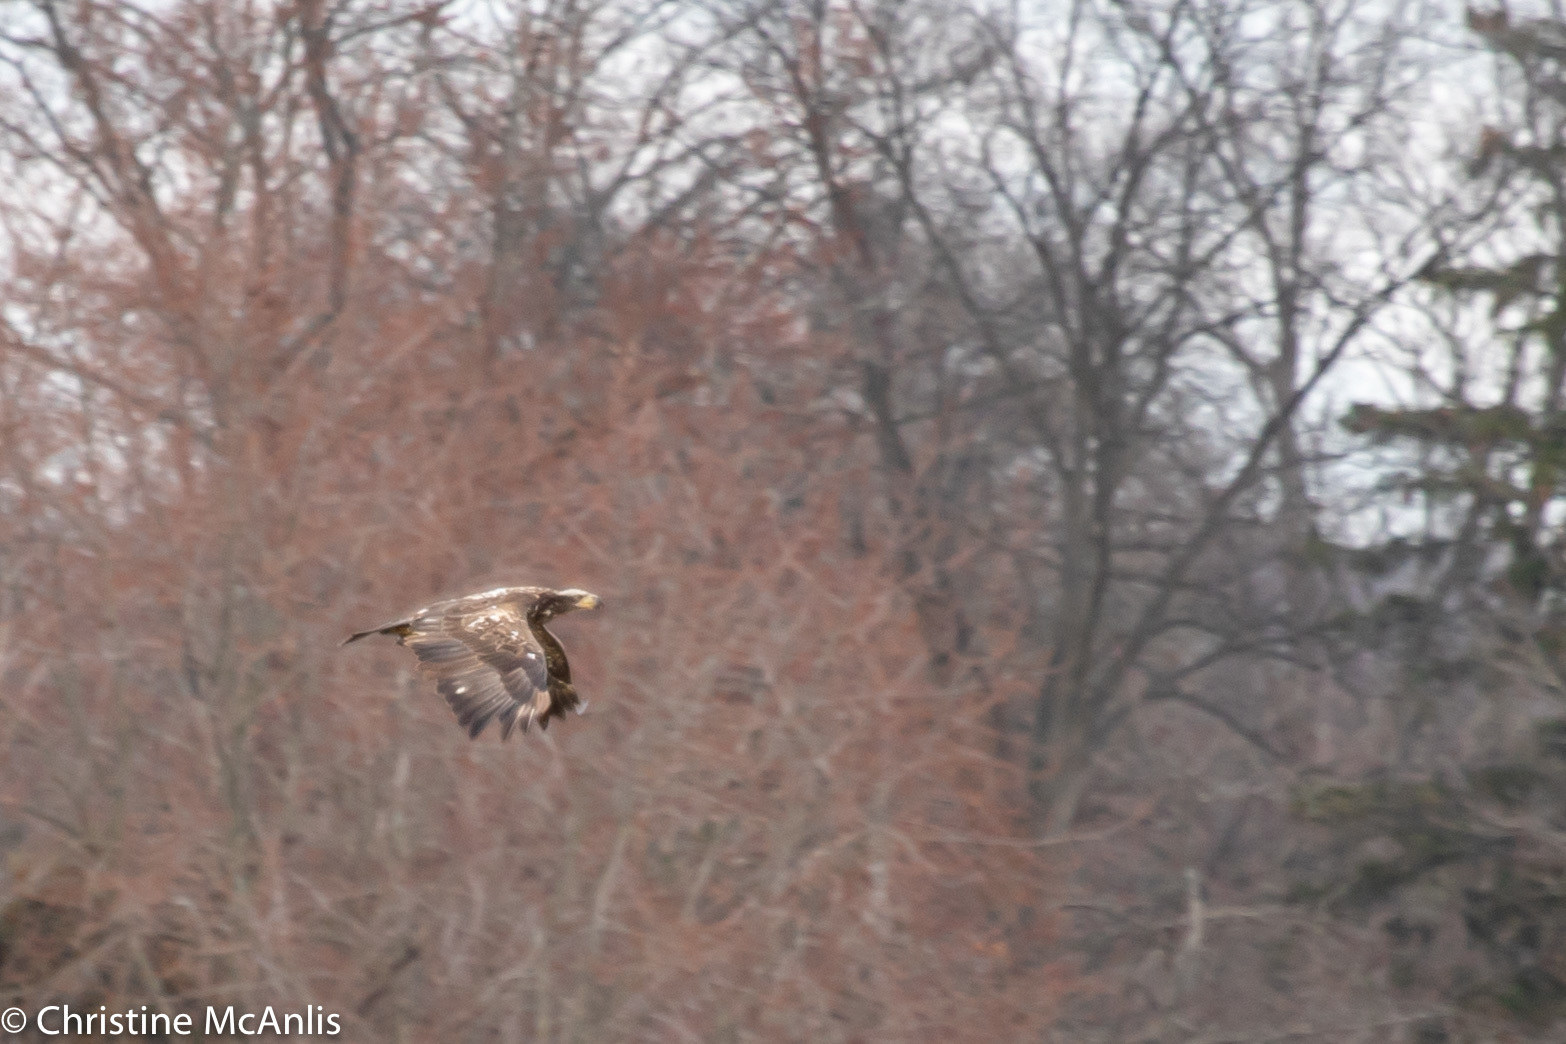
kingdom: Animalia
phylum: Chordata
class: Aves
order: Accipitriformes
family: Accipitridae
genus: Haliaeetus
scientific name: Haliaeetus leucocephalus
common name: Bald eagle
